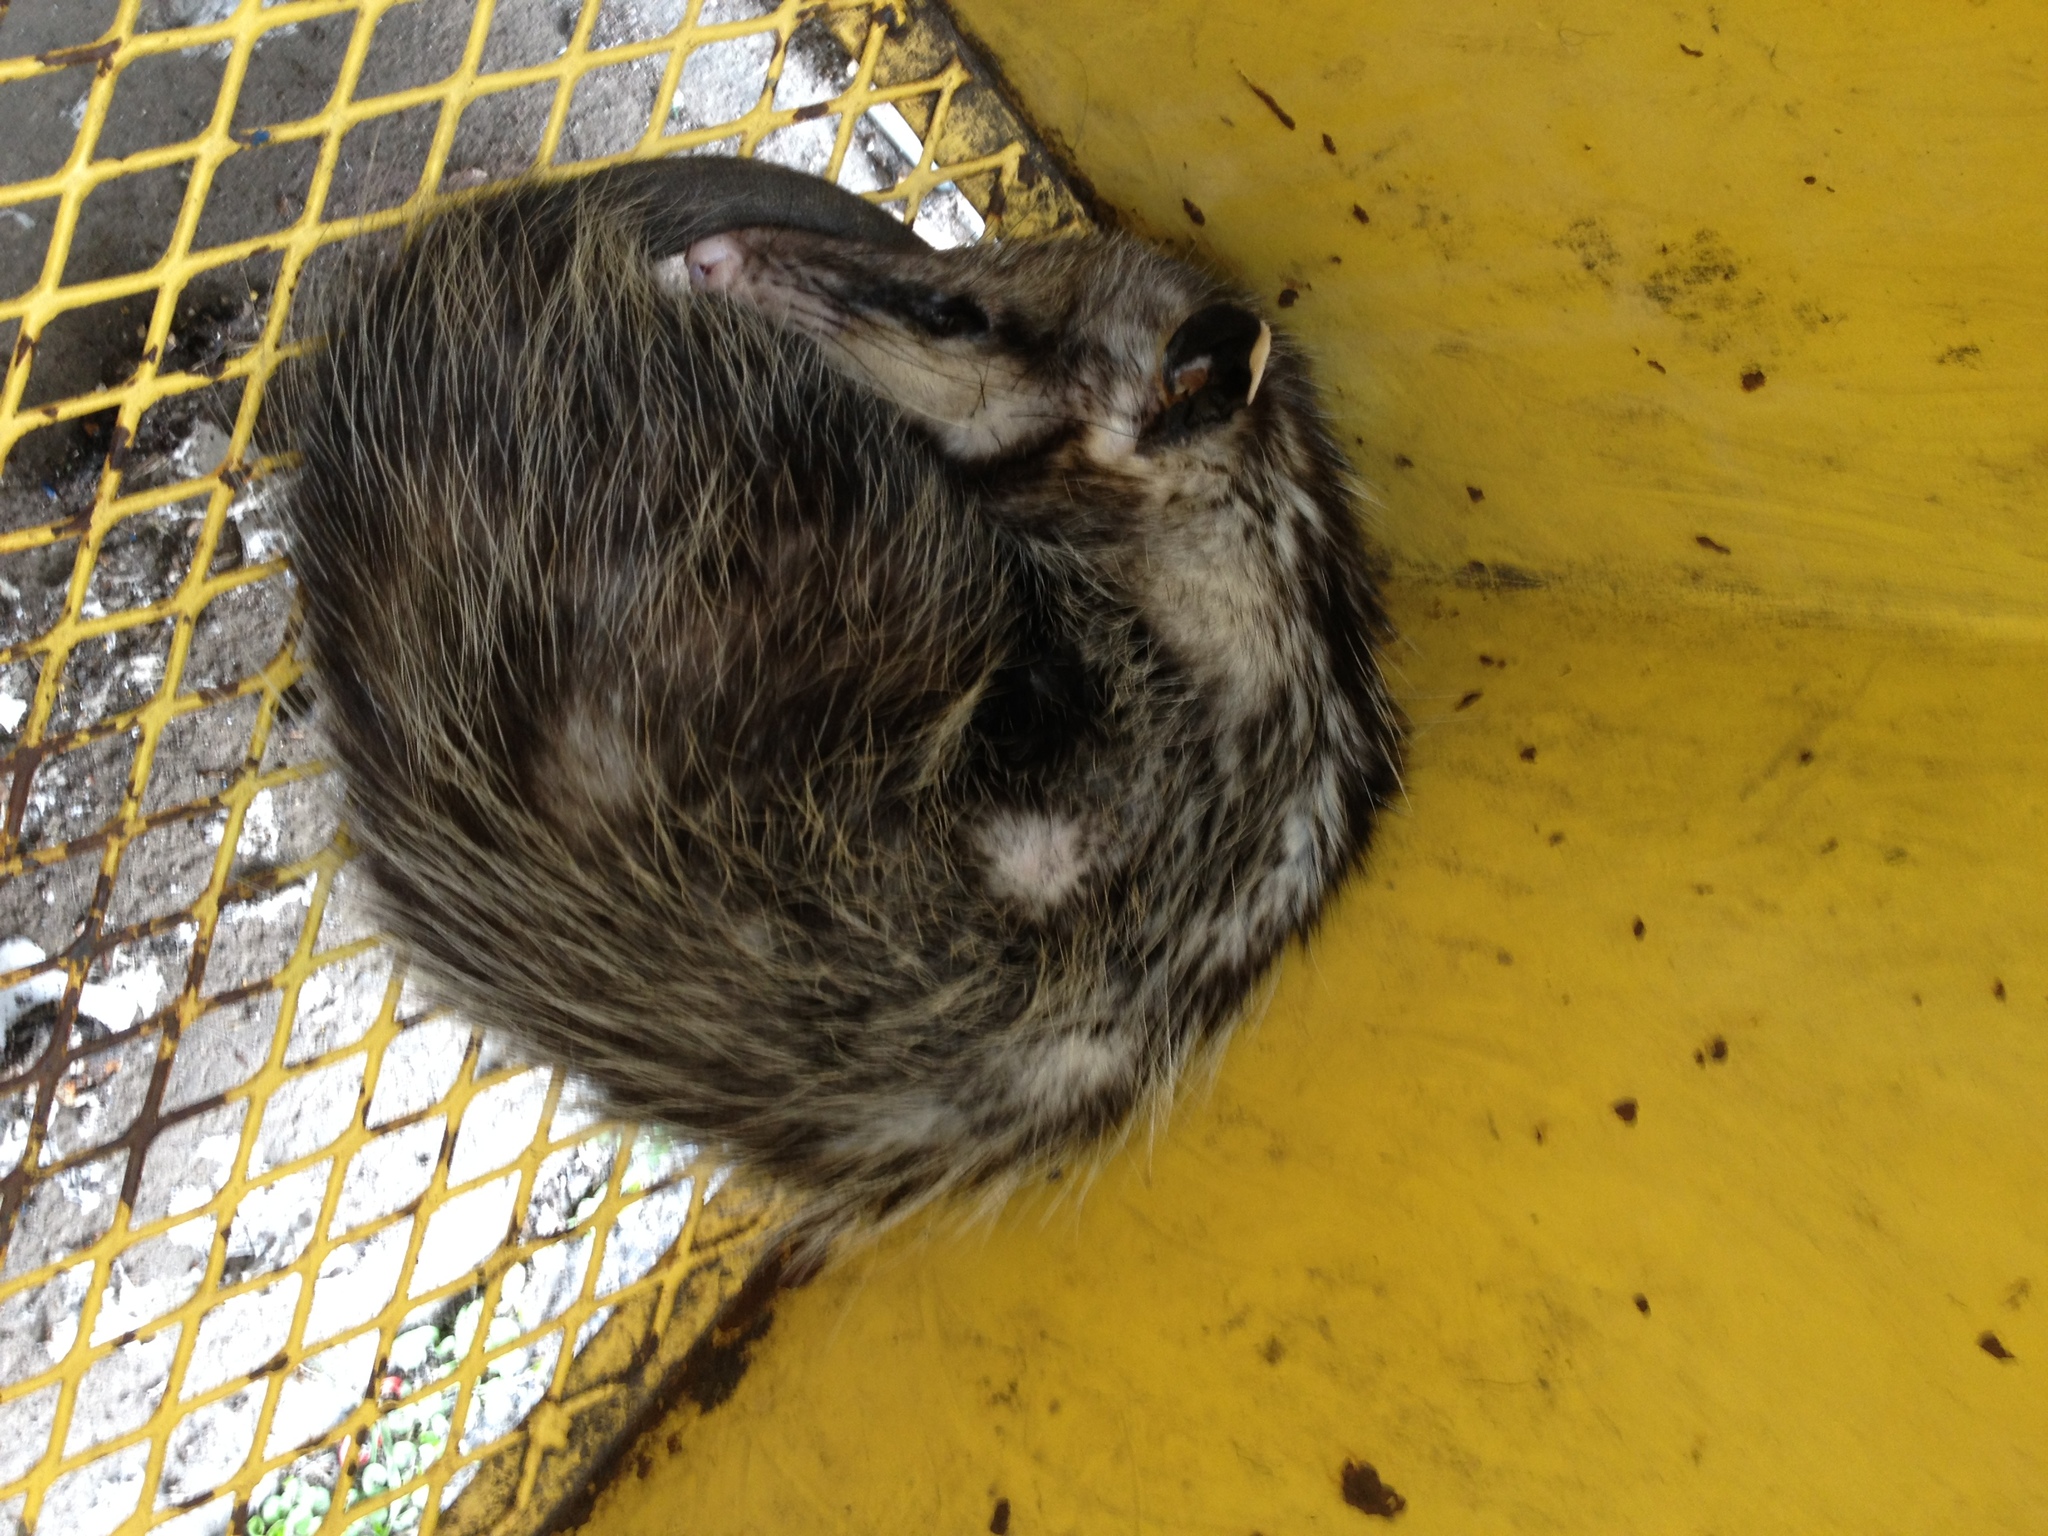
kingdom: Animalia
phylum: Chordata
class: Mammalia
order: Didelphimorphia
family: Didelphidae
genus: Didelphis
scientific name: Didelphis virginiana
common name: Virginia opossum
